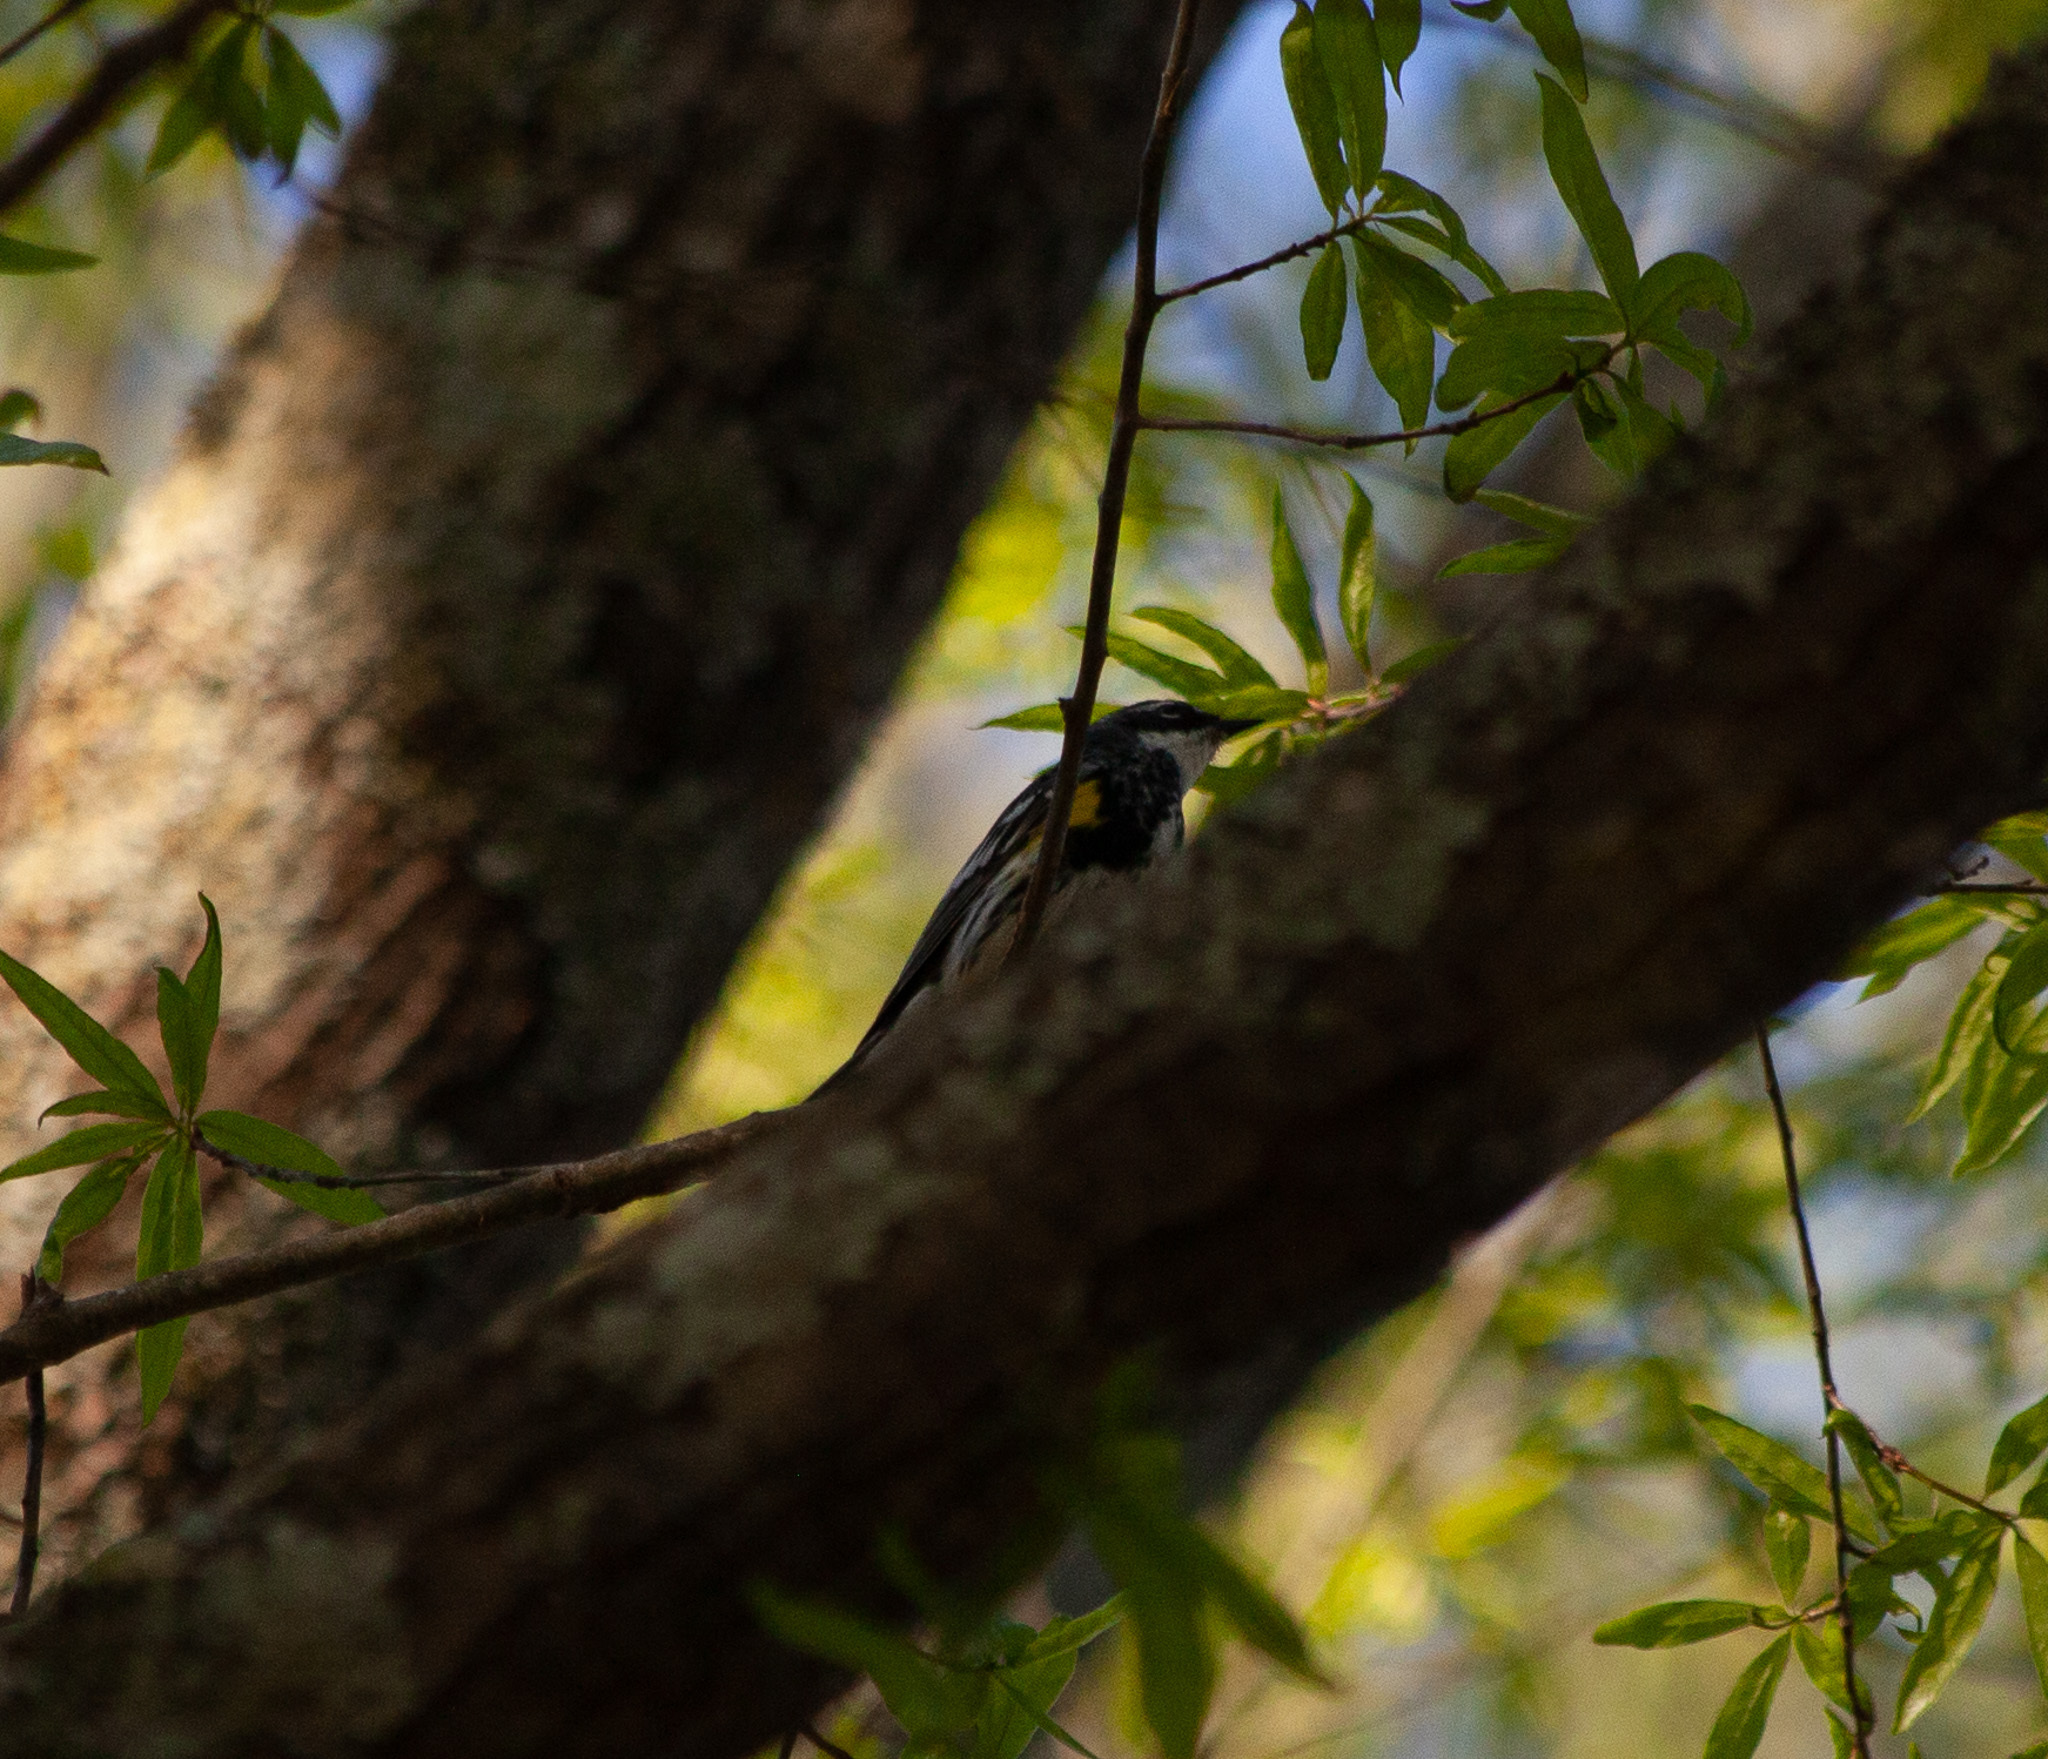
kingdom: Animalia
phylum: Chordata
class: Aves
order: Passeriformes
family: Parulidae
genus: Setophaga
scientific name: Setophaga coronata
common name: Myrtle warbler
